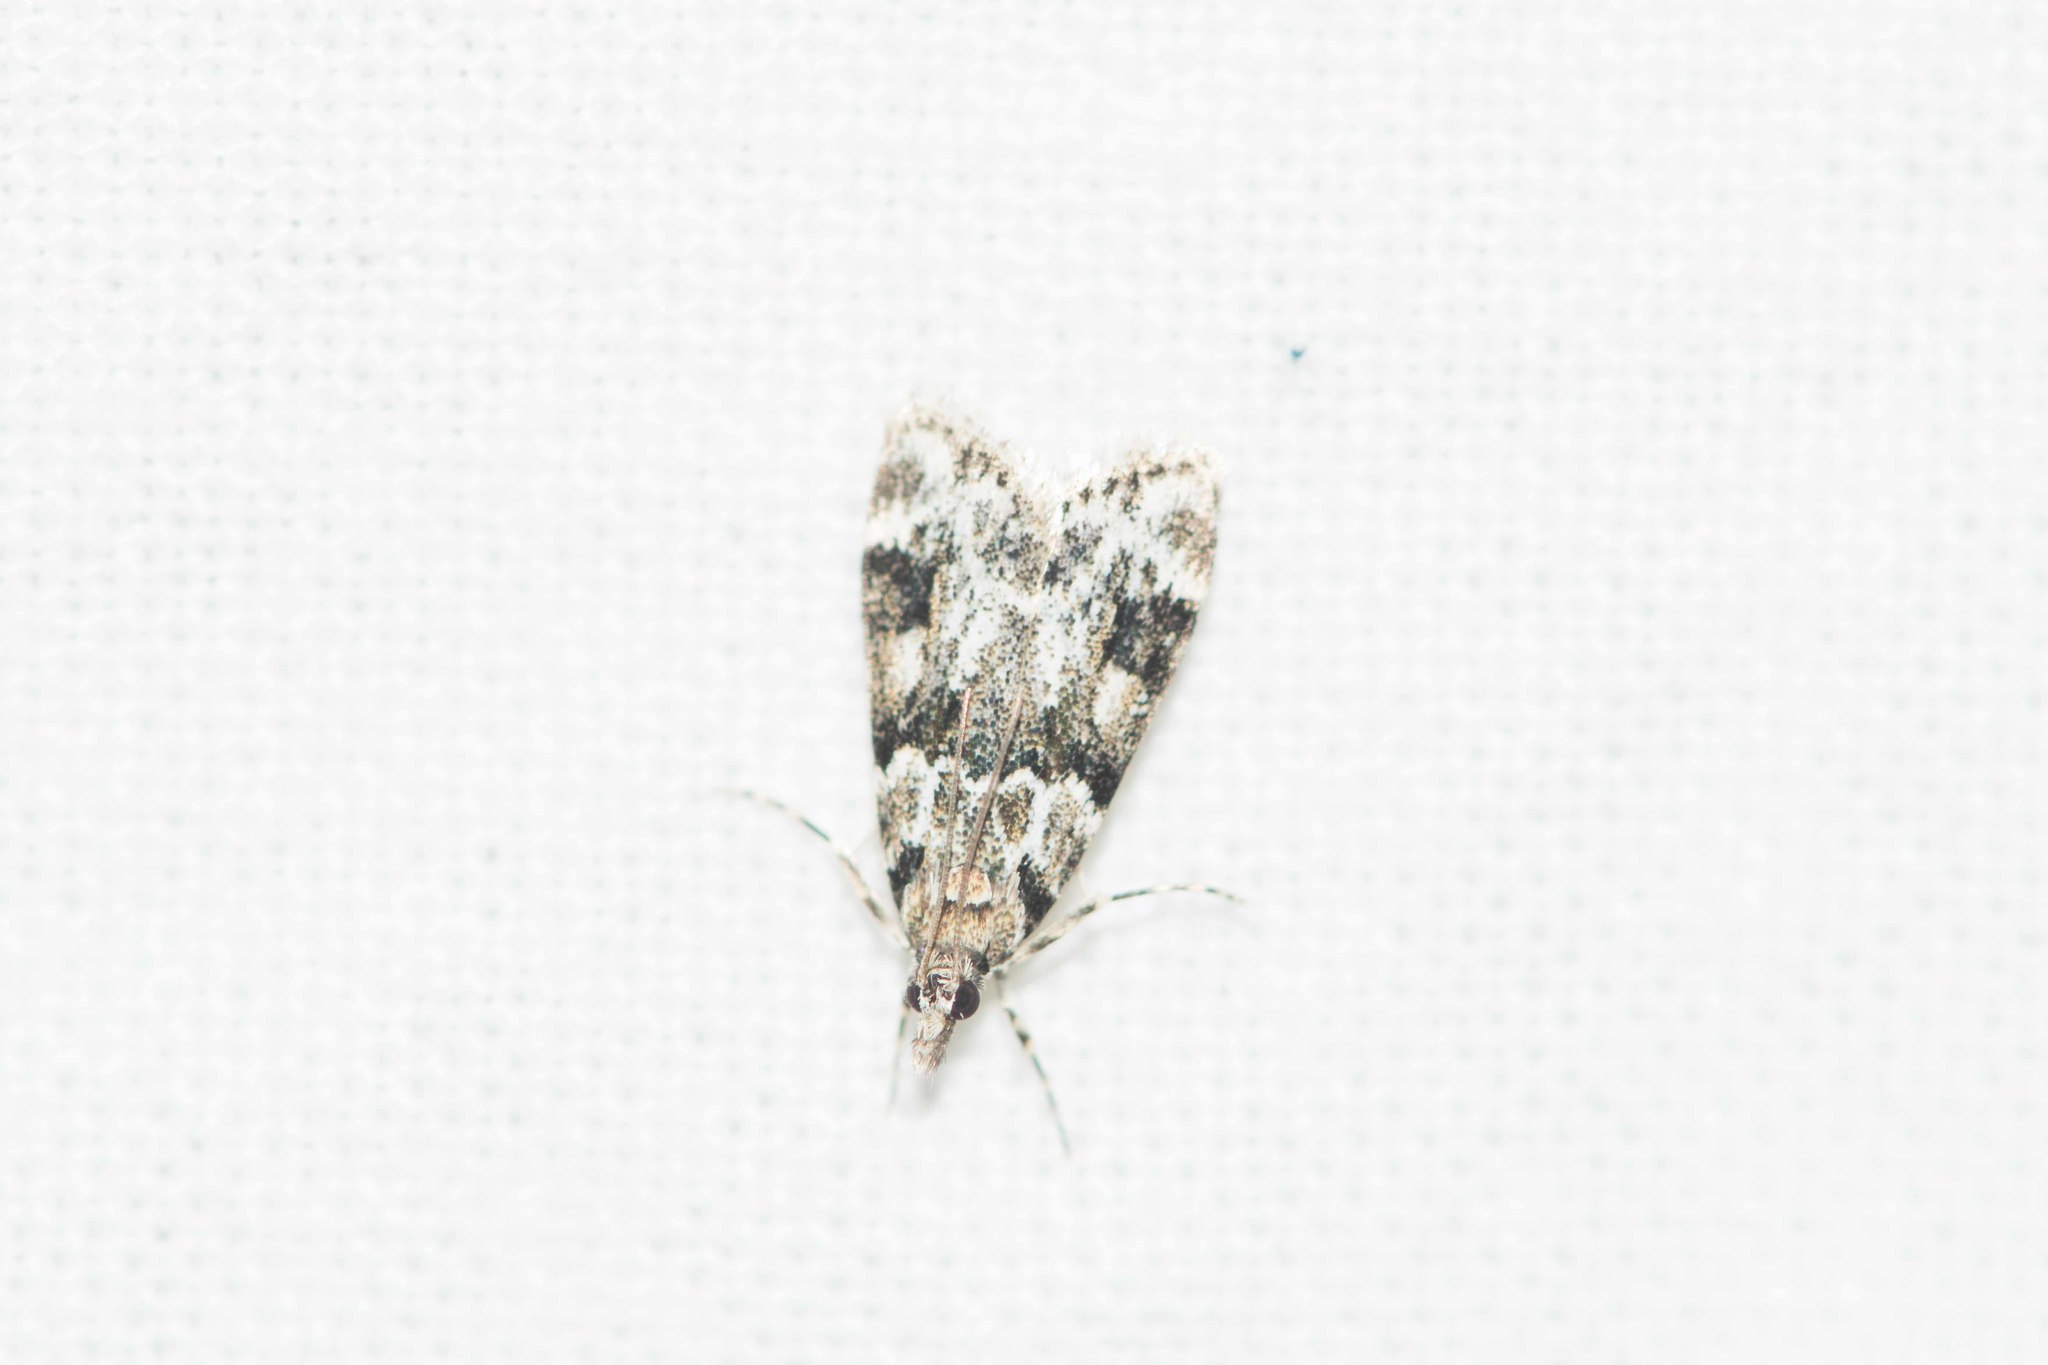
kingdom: Animalia
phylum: Arthropoda
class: Insecta
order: Lepidoptera
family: Crambidae
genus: Eudonia
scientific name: Eudonia delunella
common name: Pied grey
